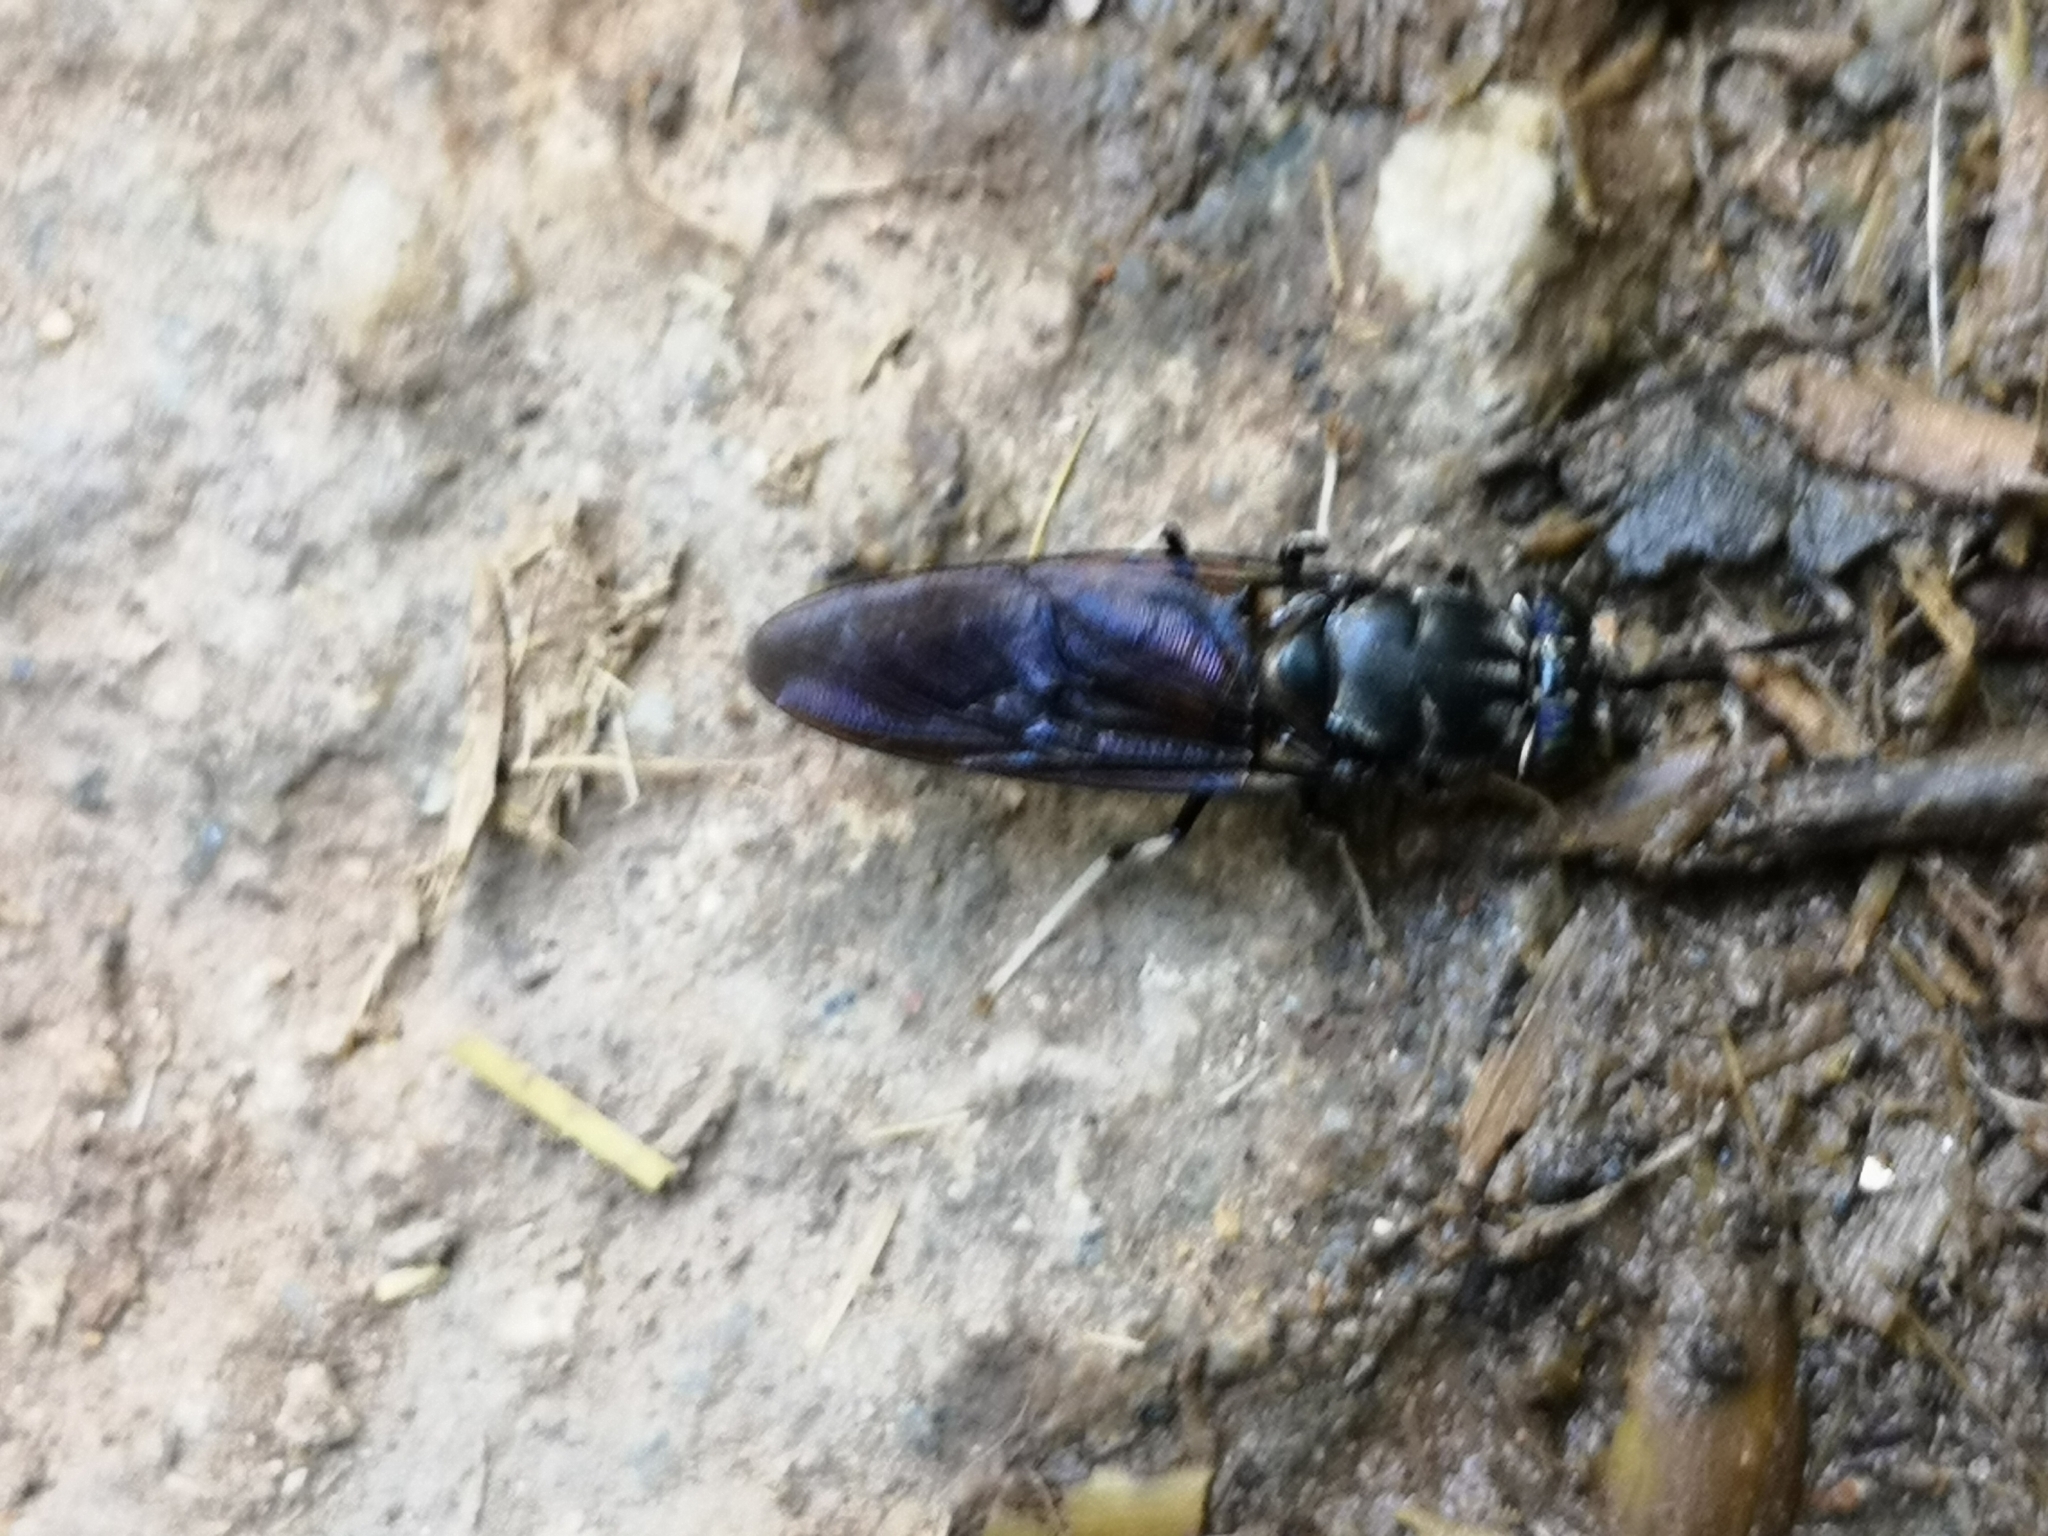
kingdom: Animalia
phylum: Arthropoda
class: Insecta
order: Diptera
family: Stratiomyidae
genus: Hermetia
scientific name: Hermetia illucens
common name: Black soldier fly
